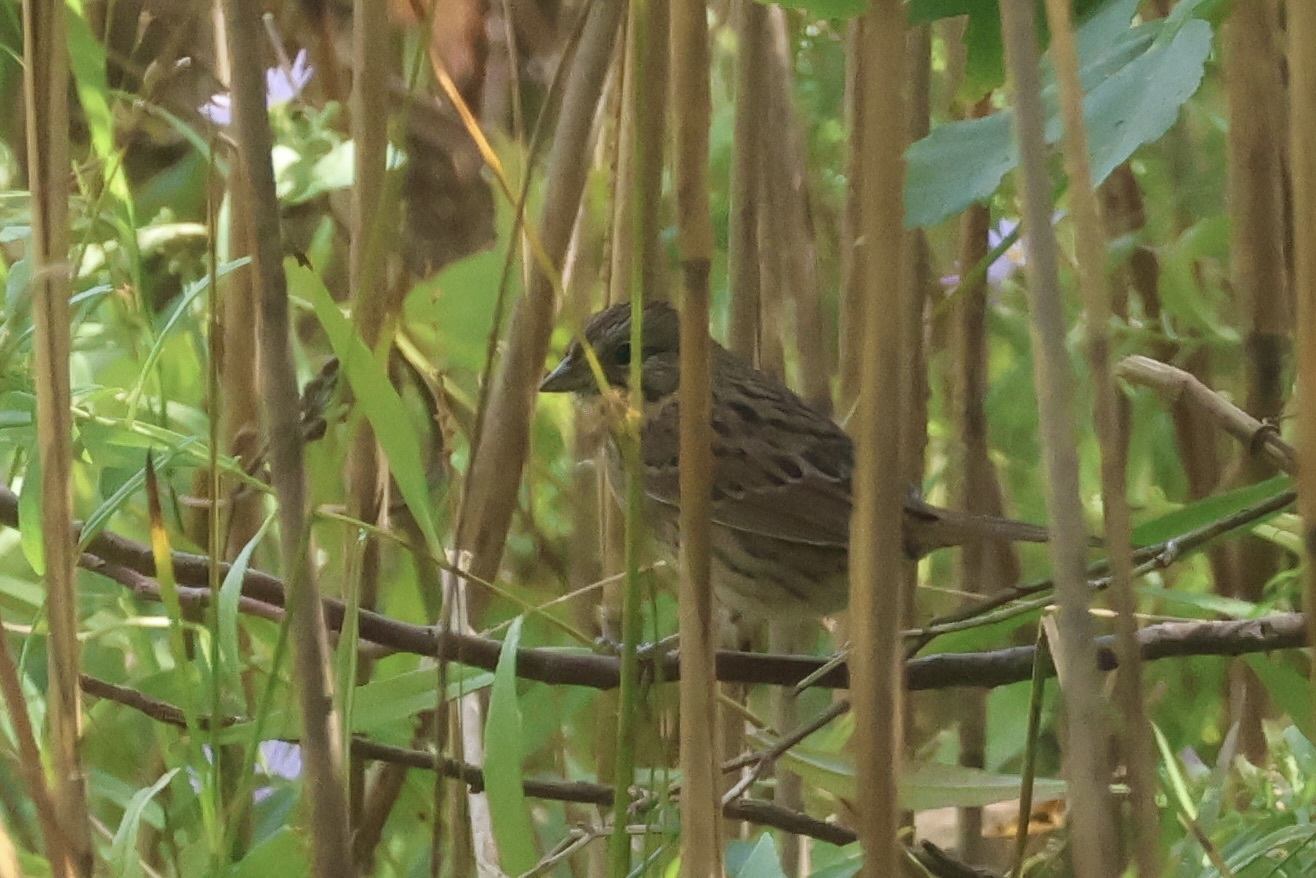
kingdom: Animalia
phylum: Chordata
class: Aves
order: Passeriformes
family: Passerellidae
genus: Melospiza
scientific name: Melospiza lincolnii
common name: Lincoln's sparrow
